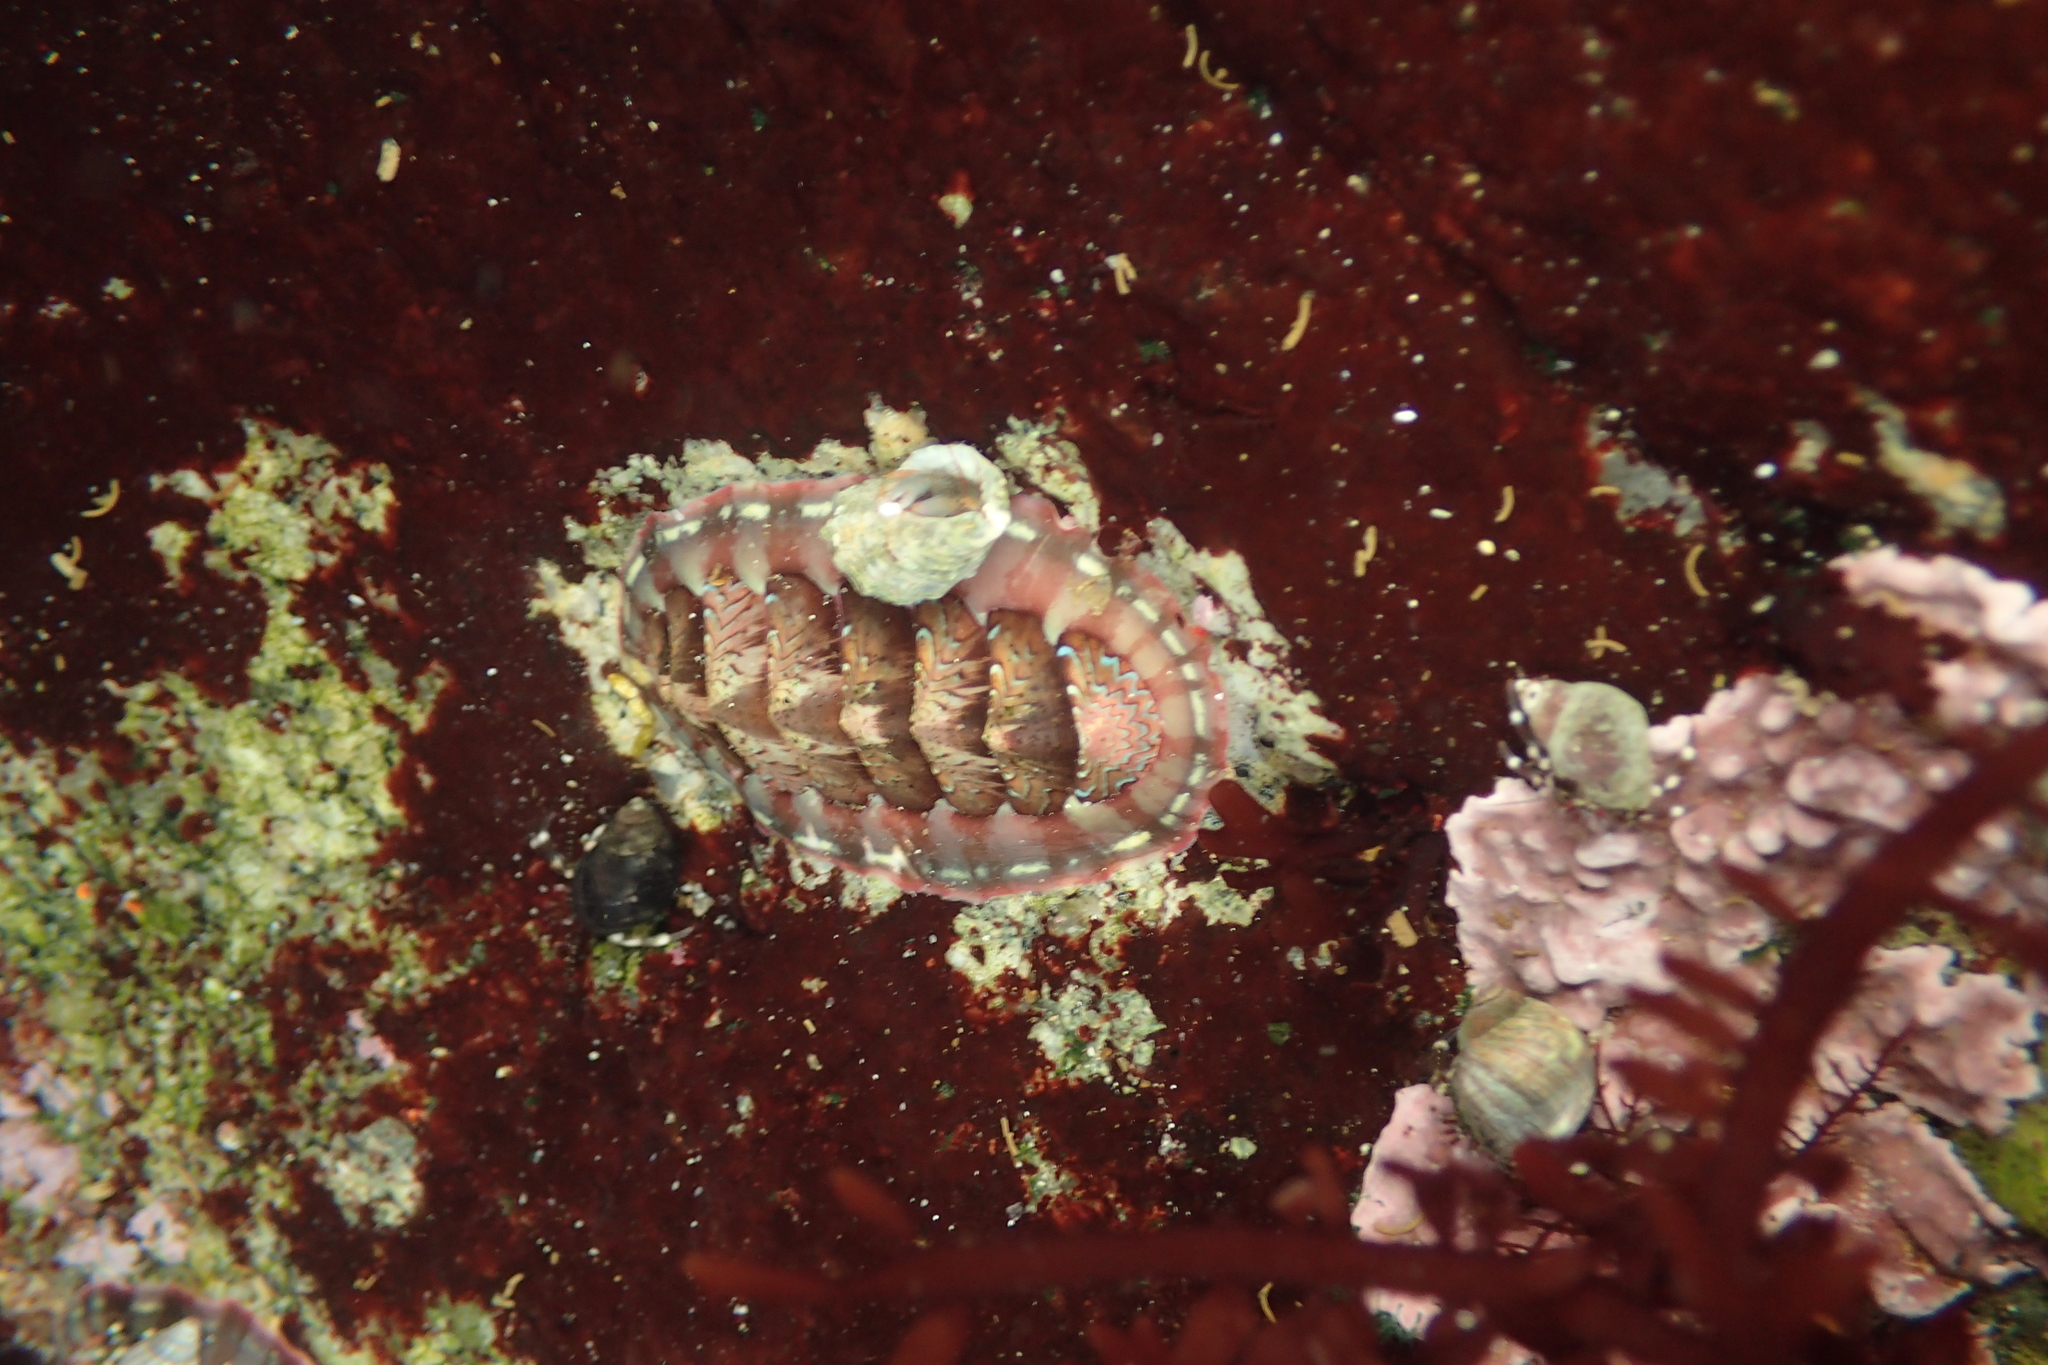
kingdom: Animalia
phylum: Mollusca
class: Polyplacophora
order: Chitonida
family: Tonicellidae
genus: Tonicella
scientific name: Tonicella lokii
